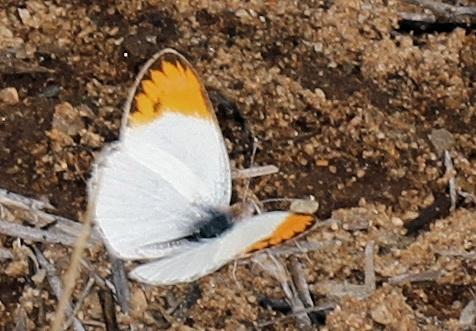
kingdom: Animalia
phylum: Arthropoda
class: Insecta
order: Lepidoptera
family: Pieridae
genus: Colotis
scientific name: Colotis evagore
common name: Desert orange-tip
